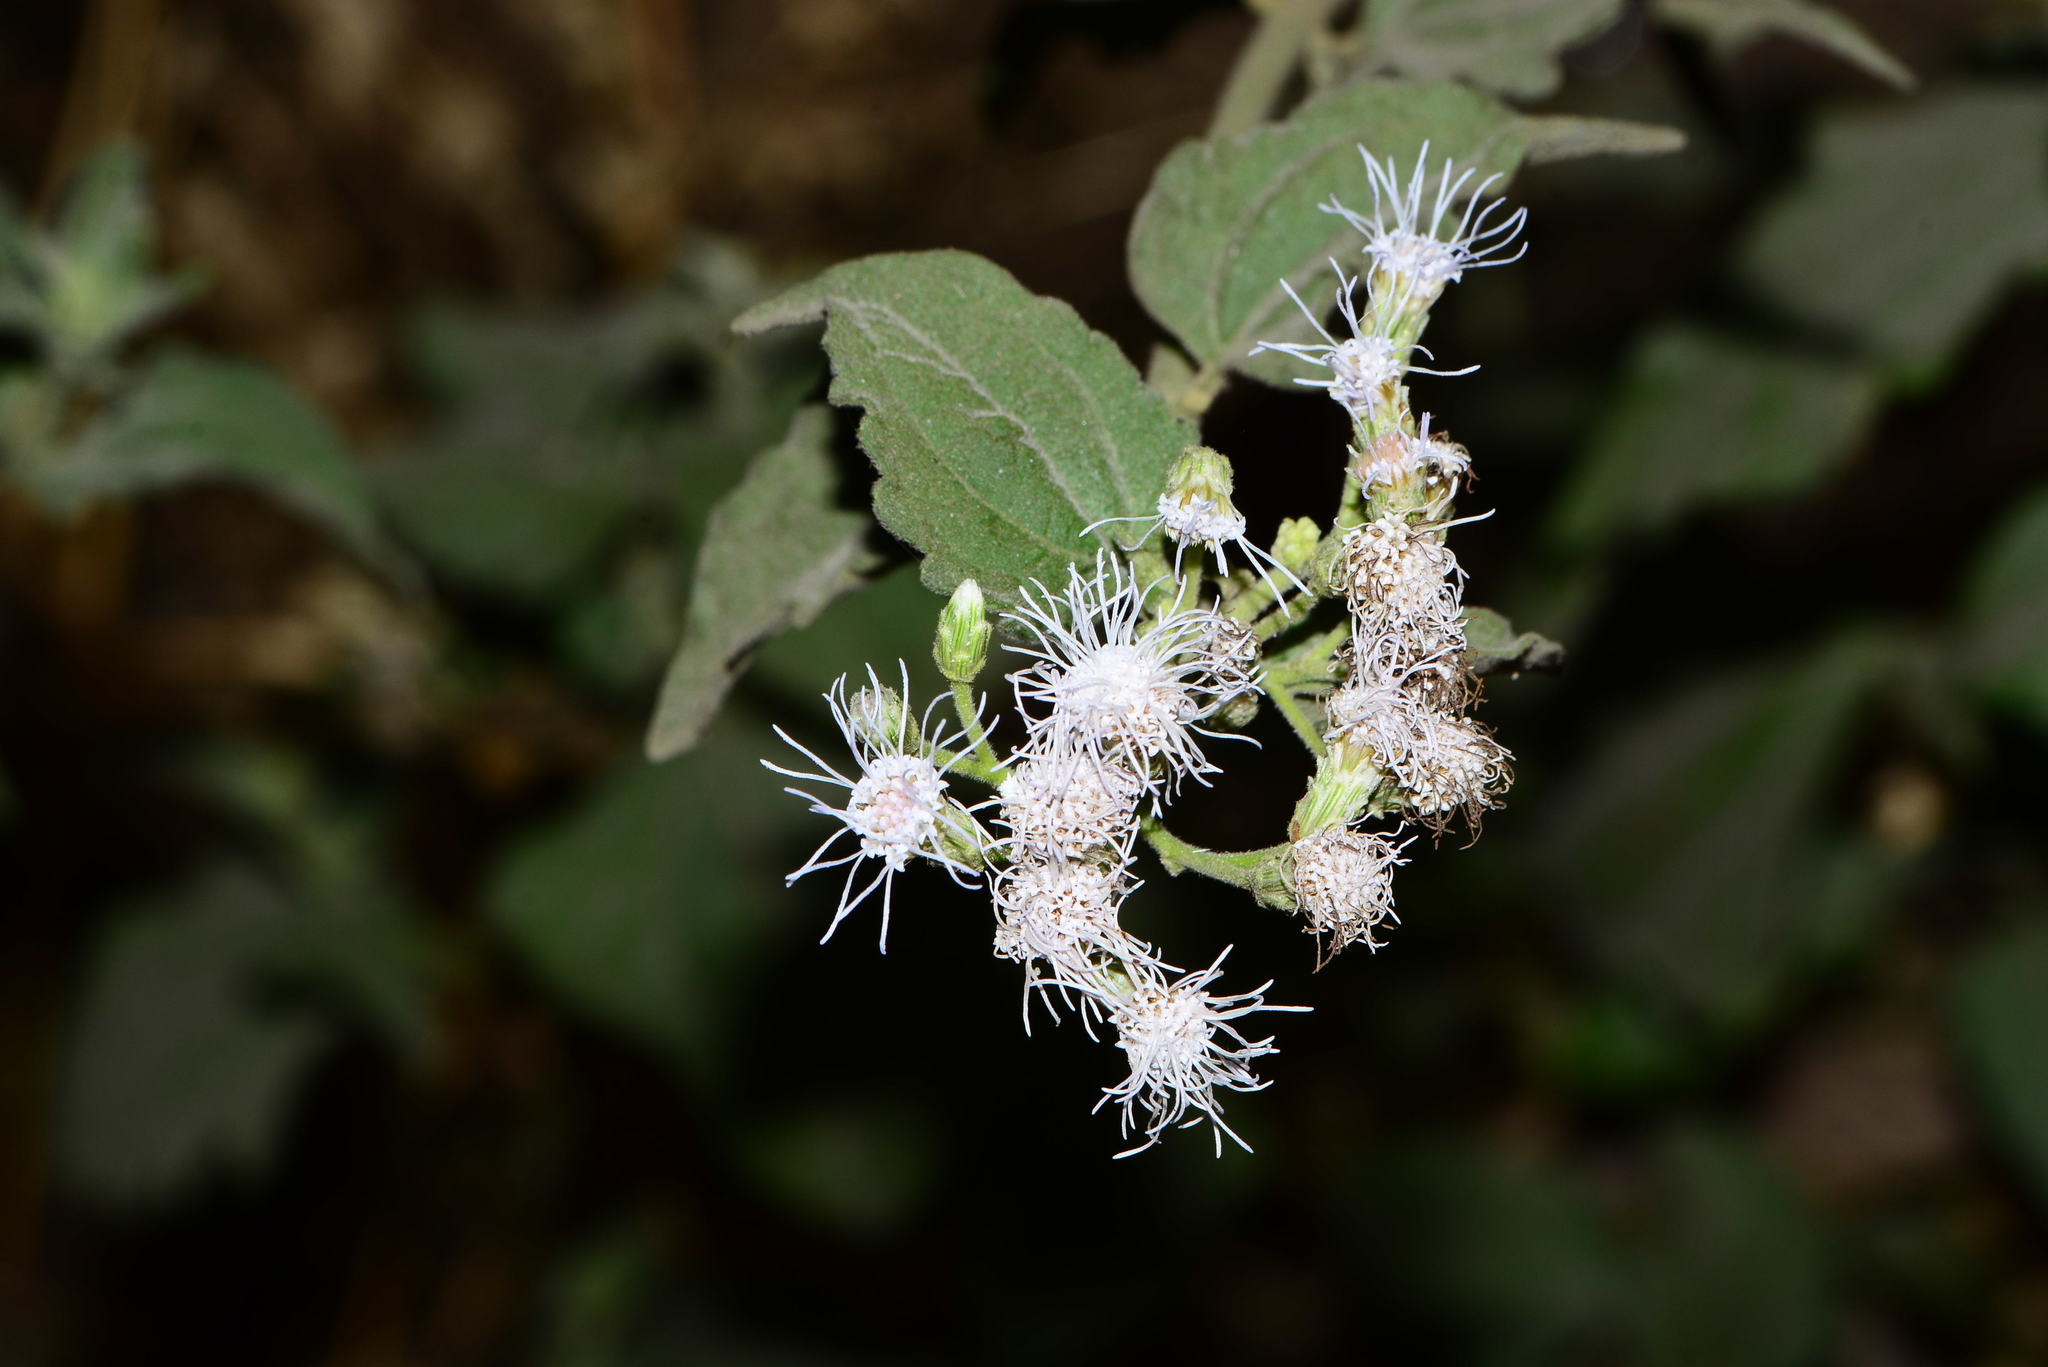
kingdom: Plantae
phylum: Tracheophyta
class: Magnoliopsida
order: Asterales
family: Asteraceae
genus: Chromolaena
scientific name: Chromolaena odorata
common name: Siamweed
